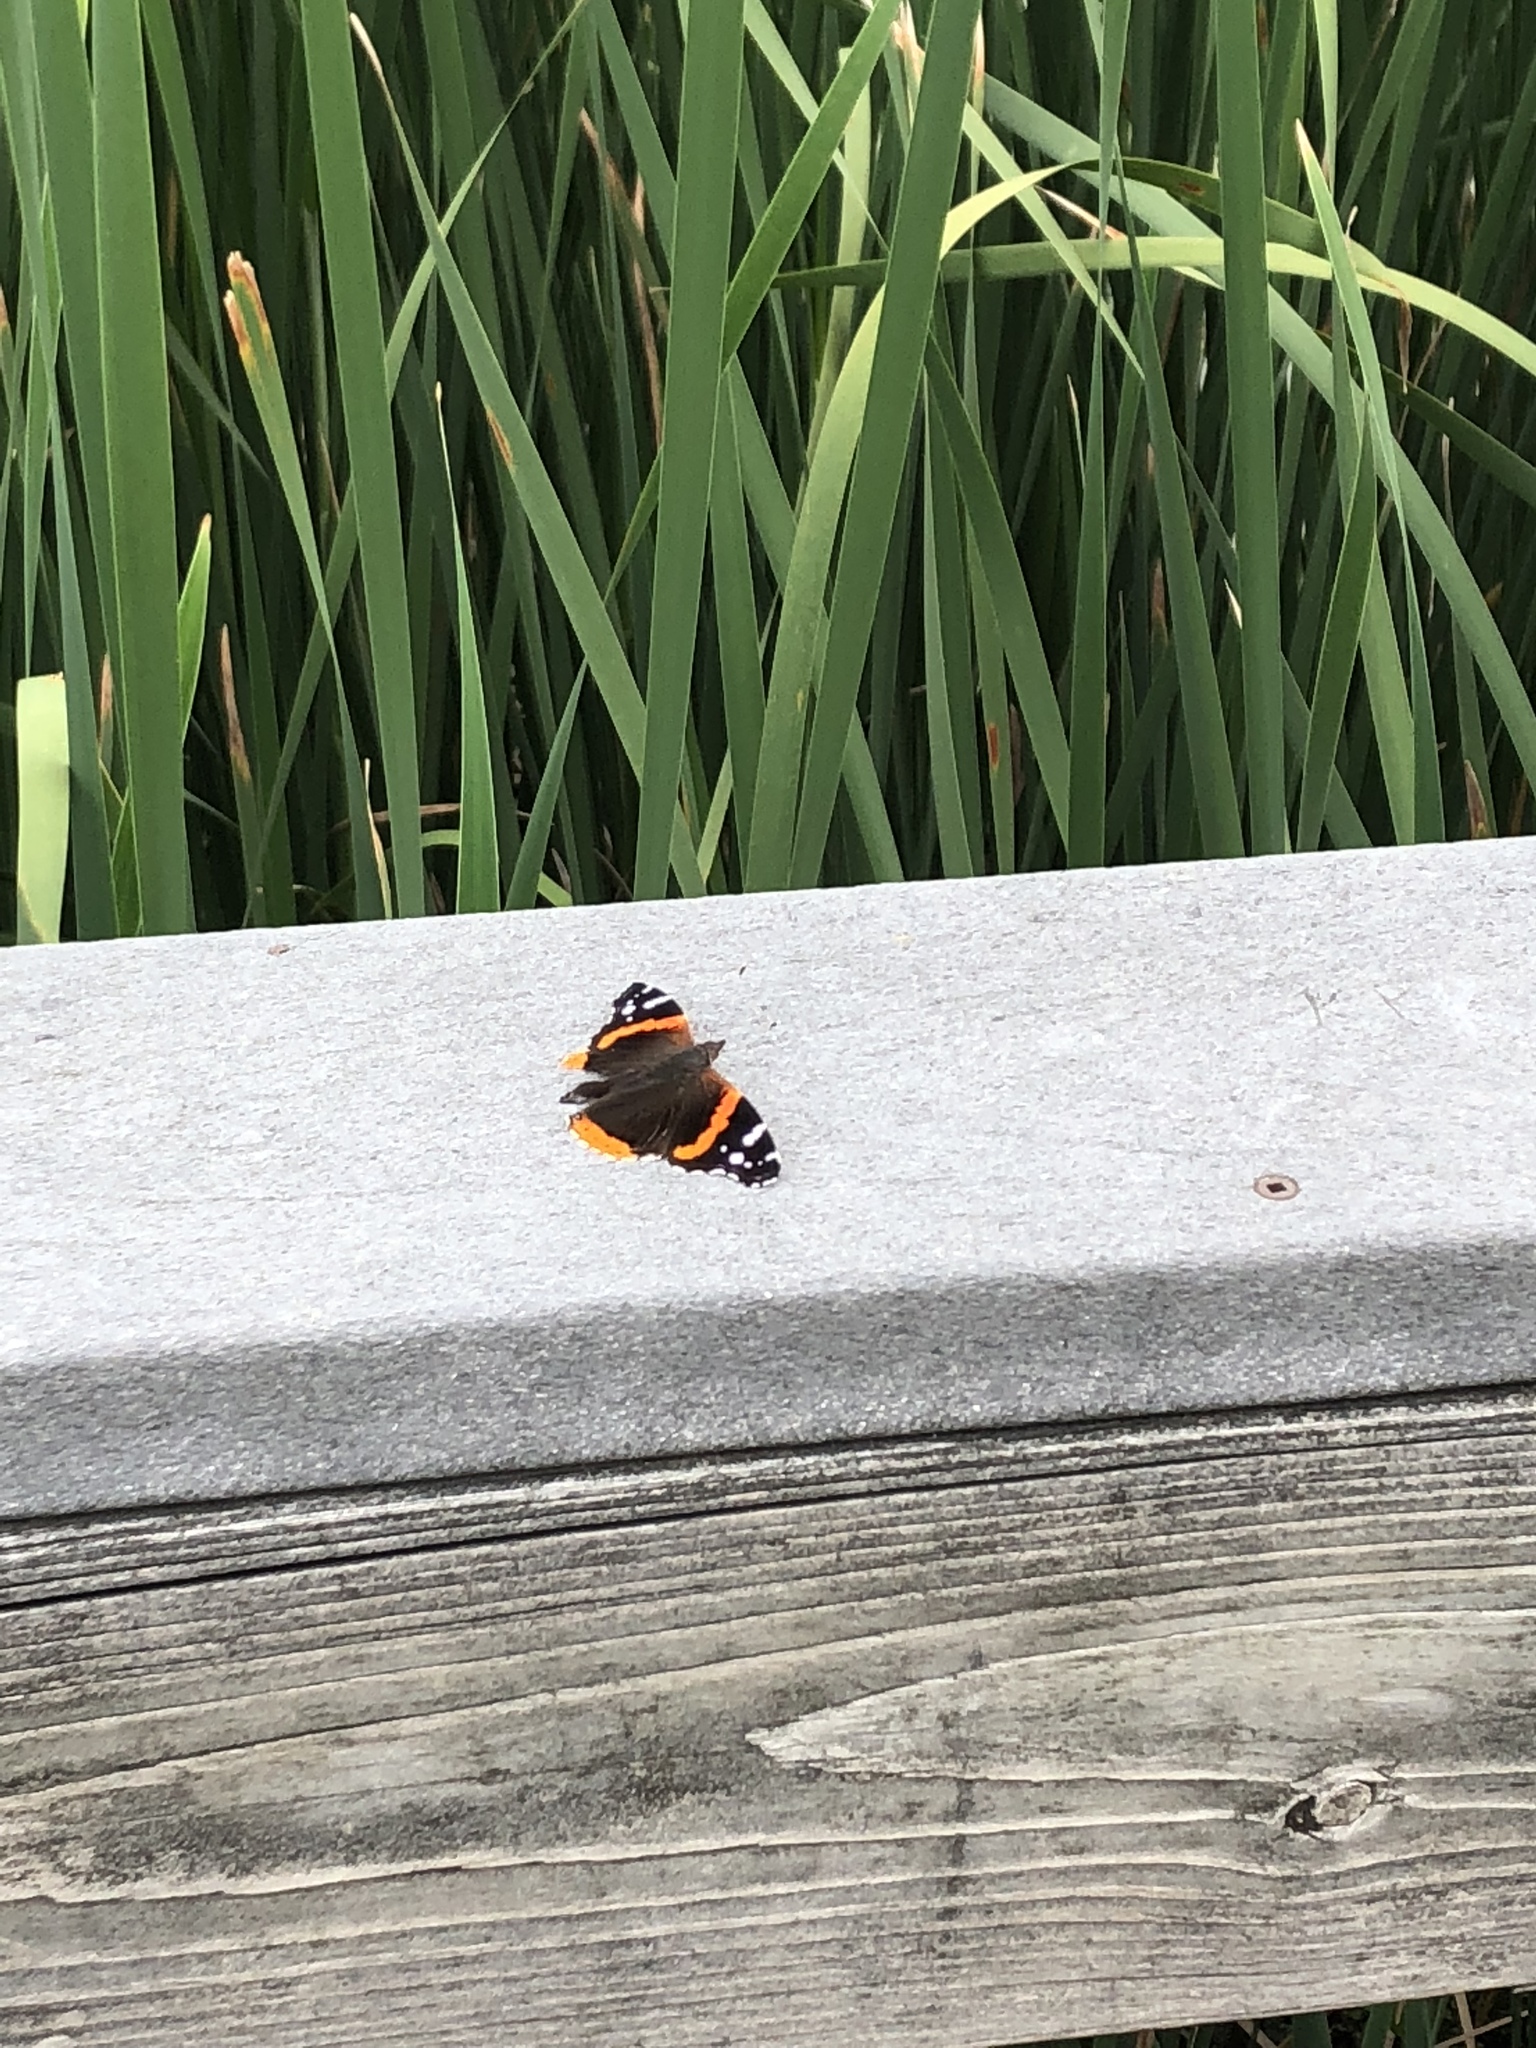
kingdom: Animalia
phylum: Arthropoda
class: Insecta
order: Lepidoptera
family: Nymphalidae
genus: Vanessa
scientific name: Vanessa atalanta
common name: Red admiral
